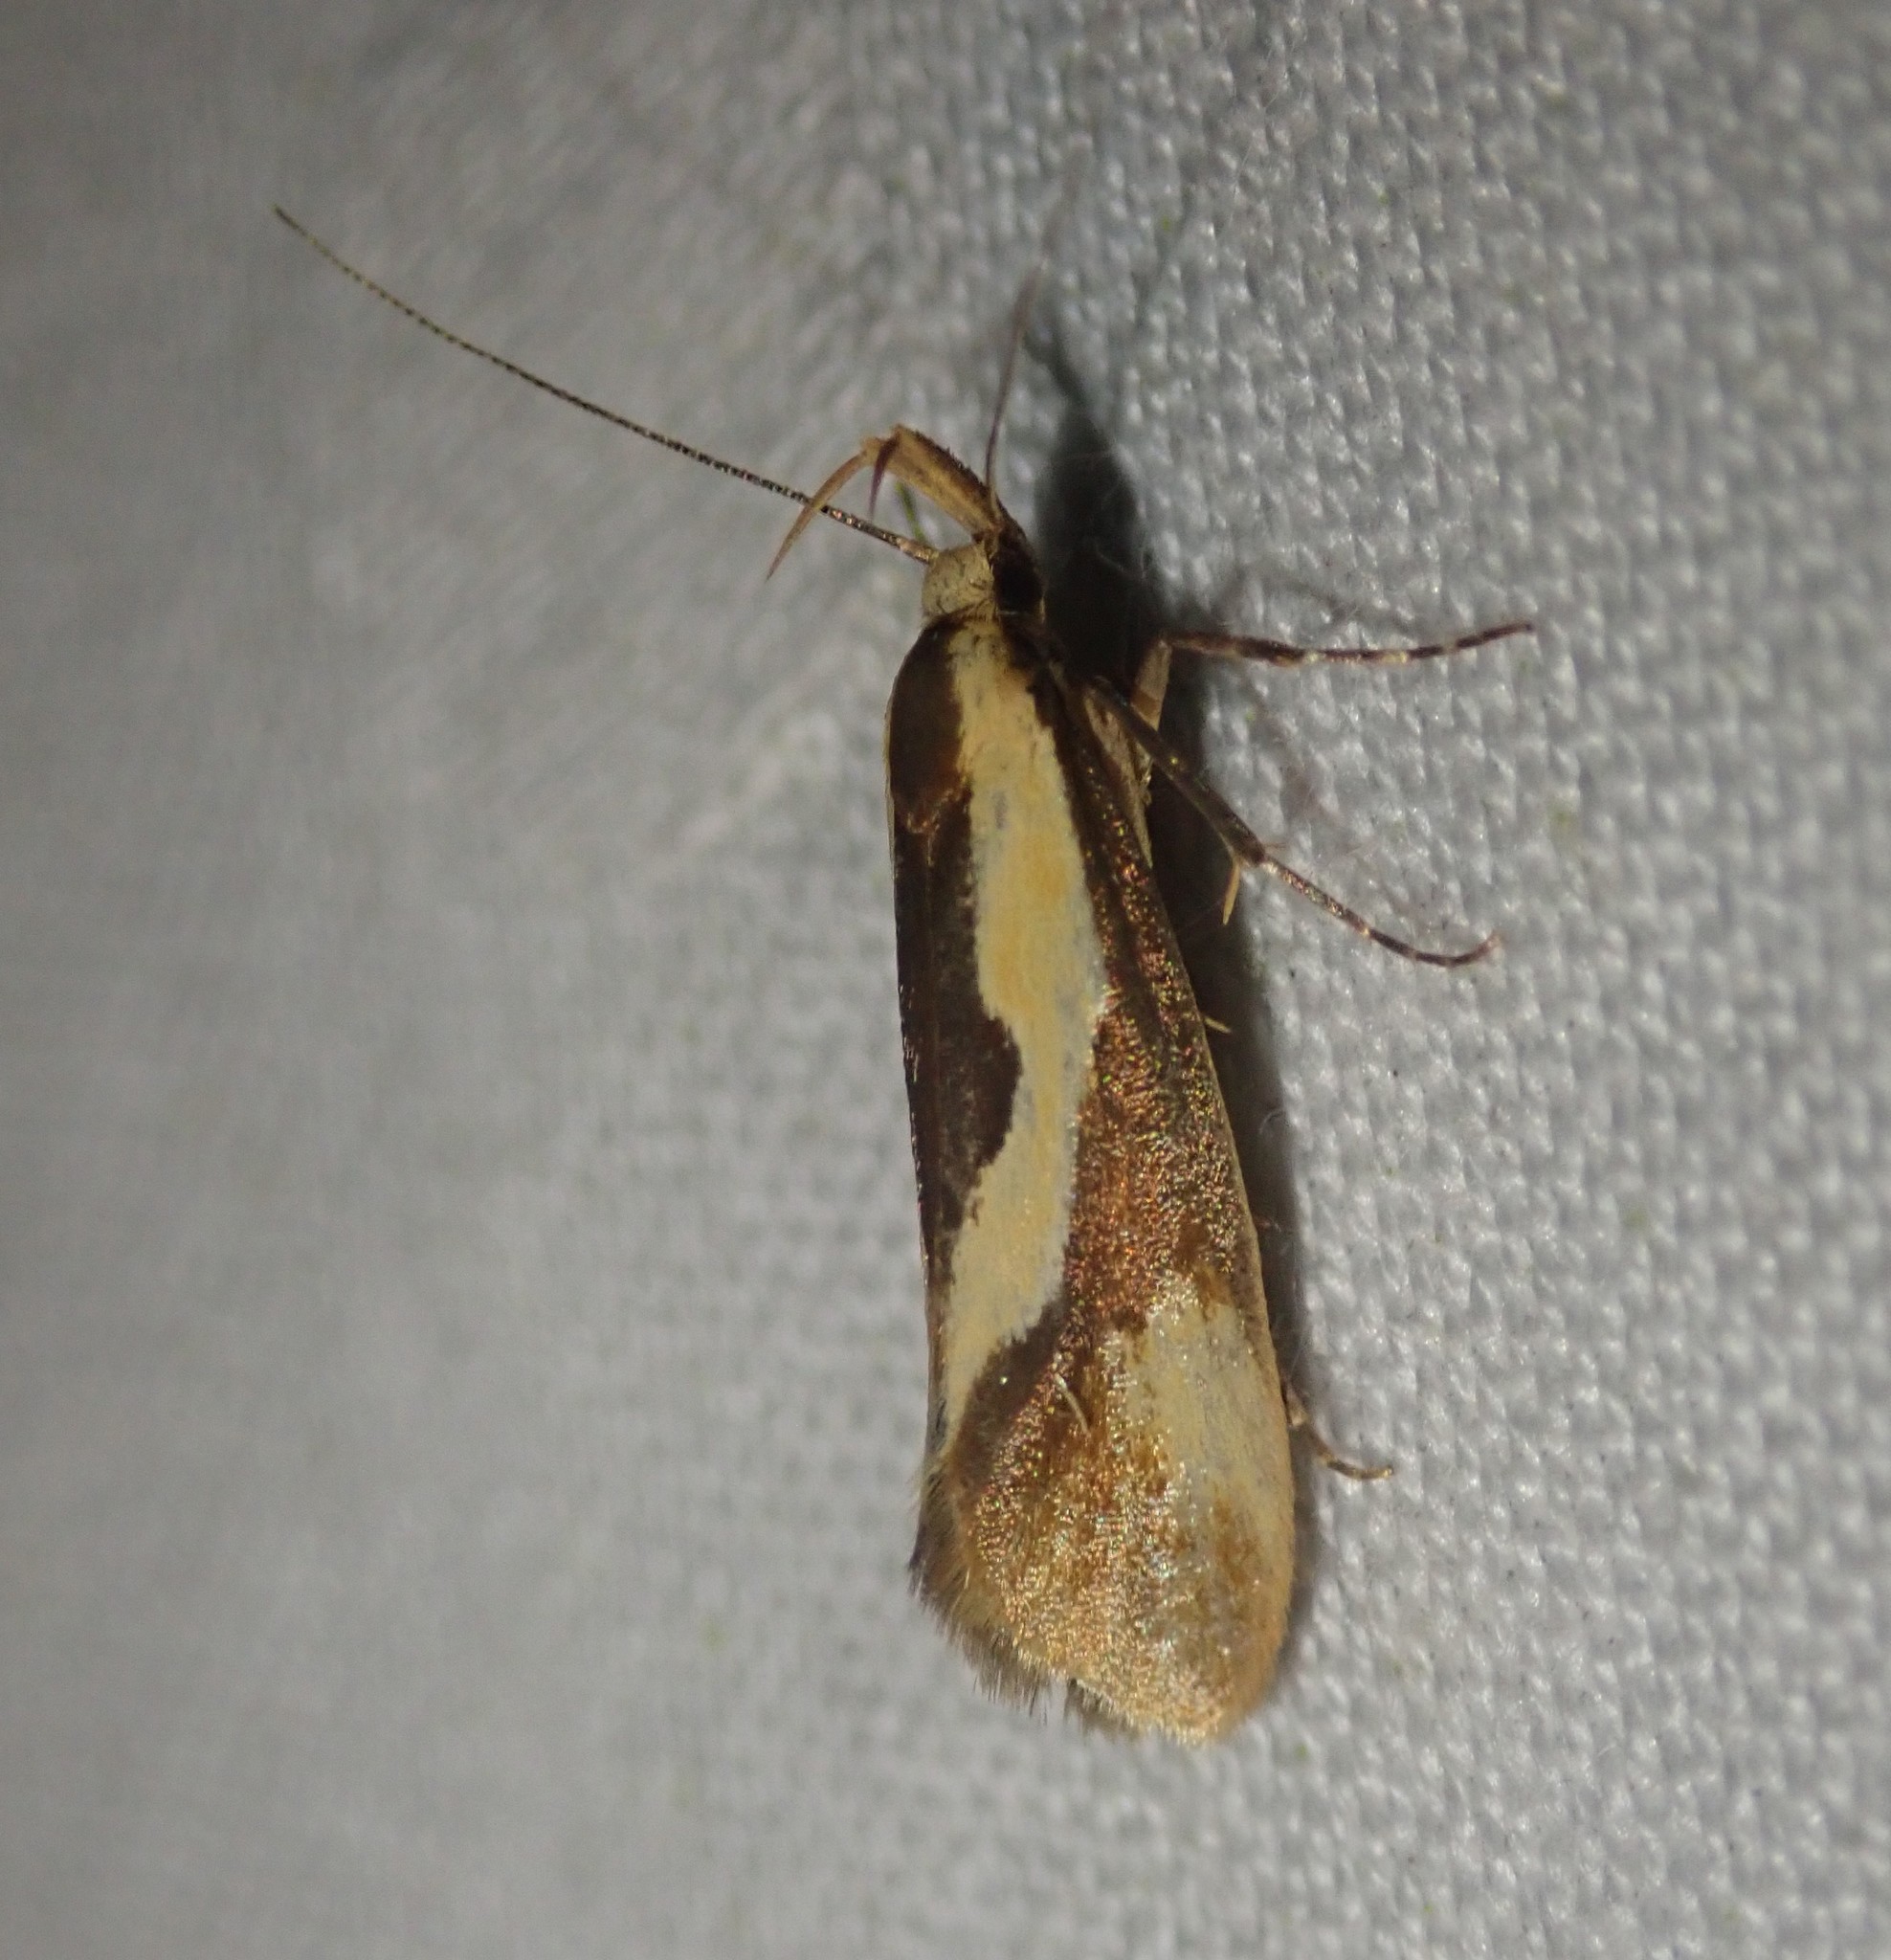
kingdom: Animalia
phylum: Arthropoda
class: Insecta
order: Lepidoptera
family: Oecophoridae
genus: Harpella
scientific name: Harpella forficella
